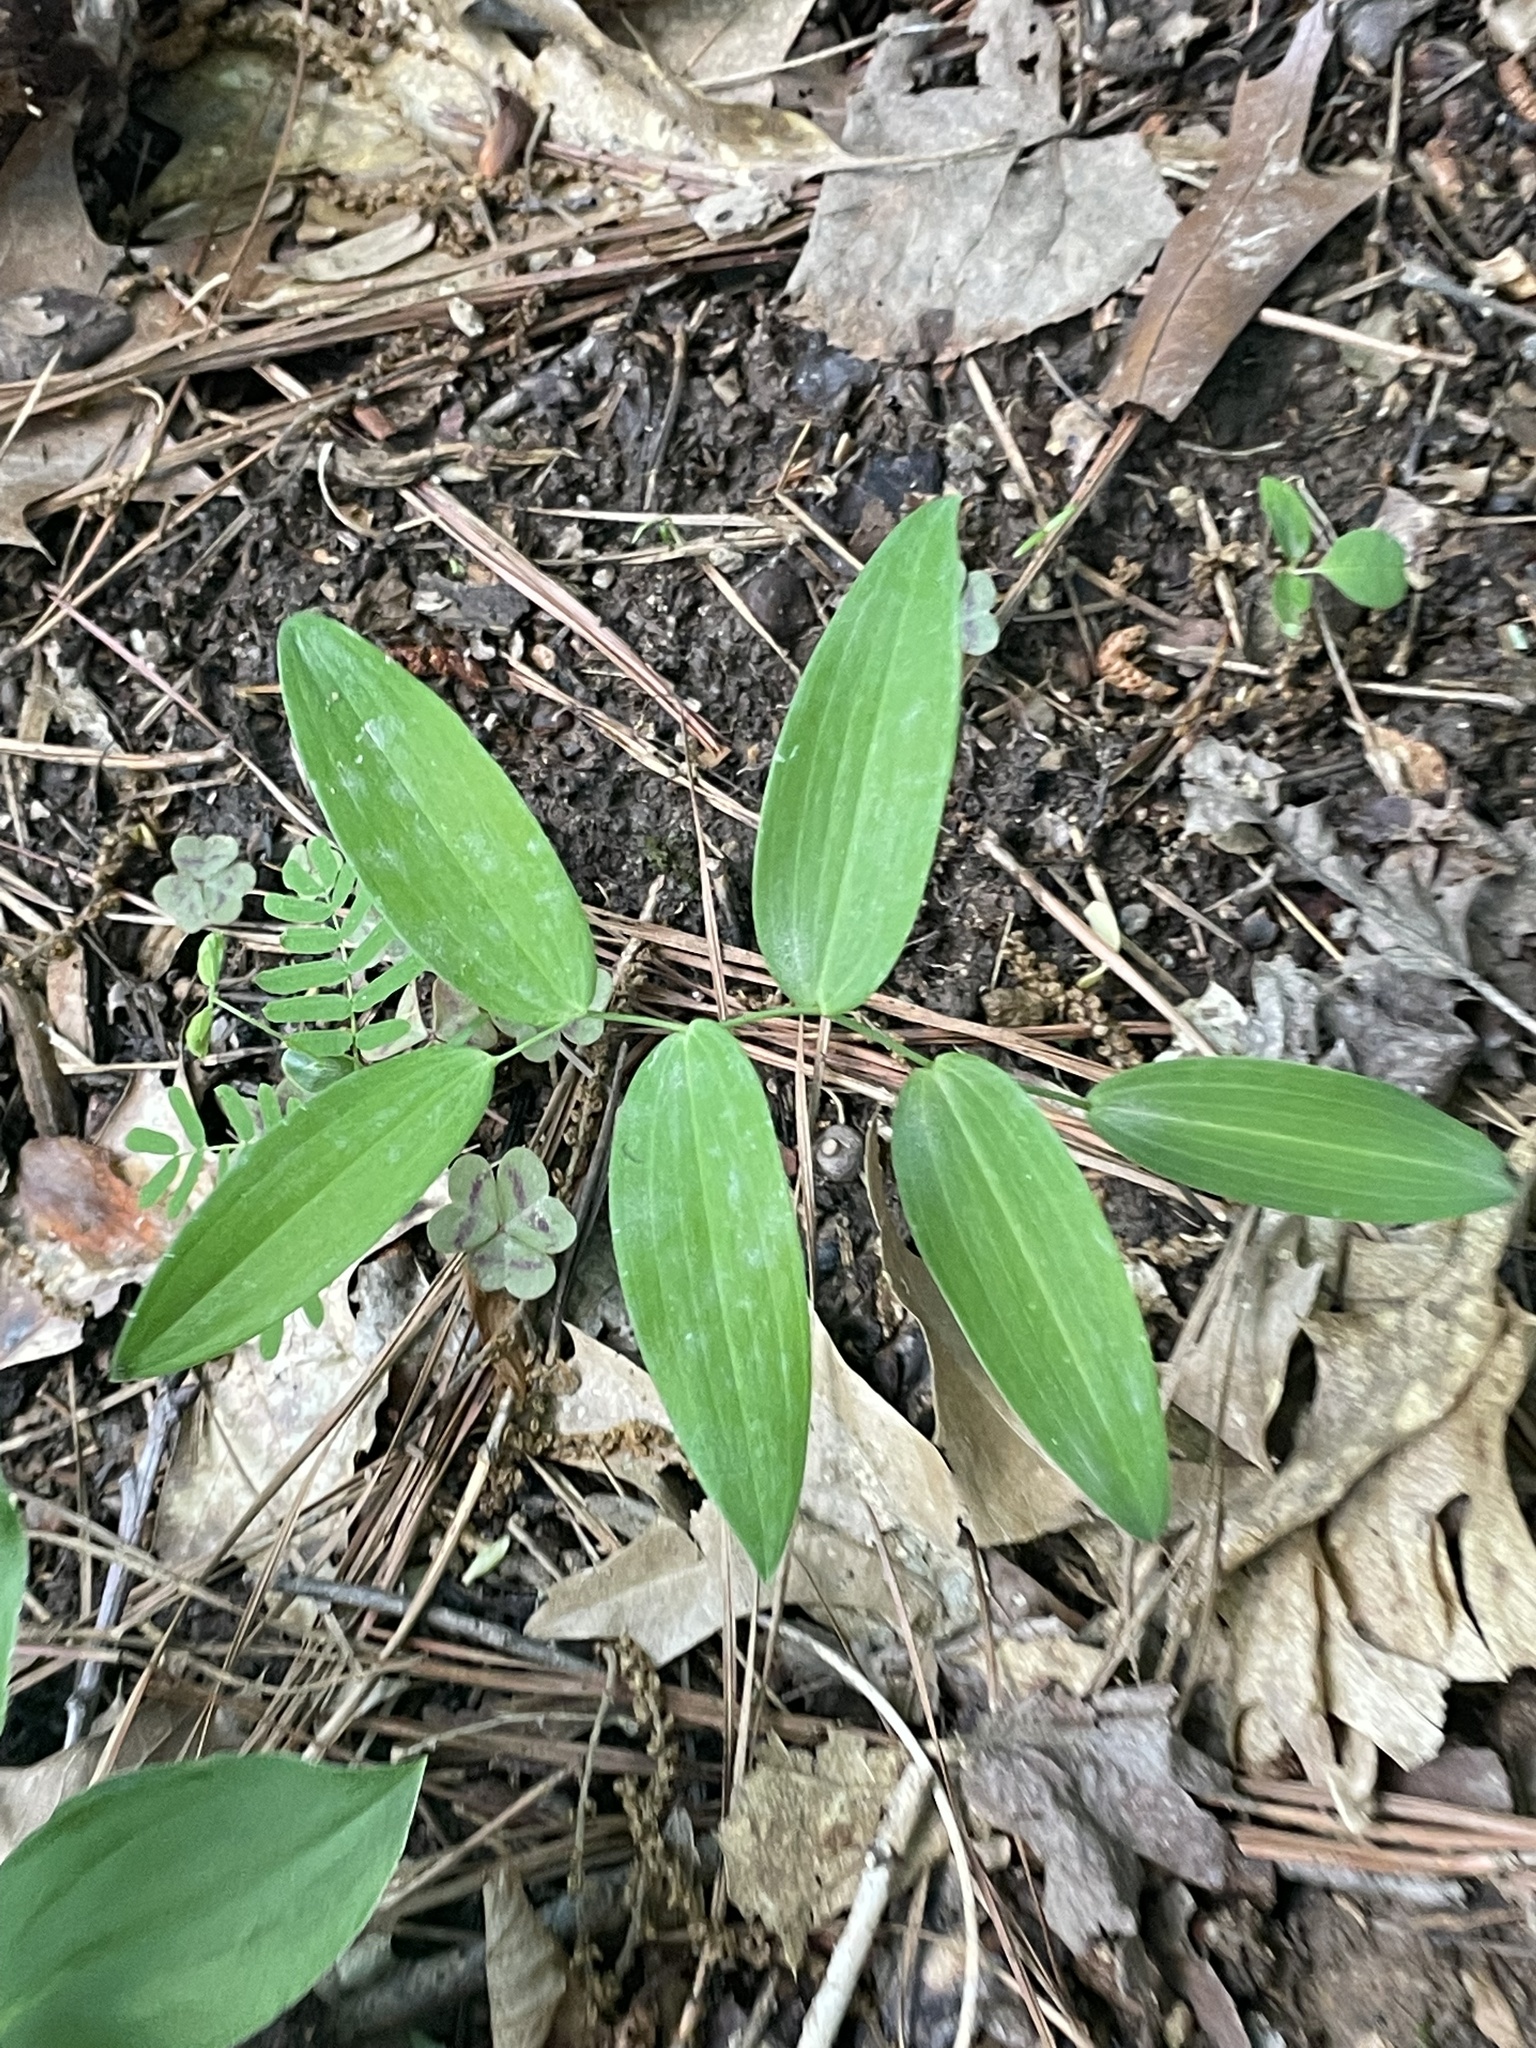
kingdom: Plantae
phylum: Tracheophyta
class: Liliopsida
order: Asparagales
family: Asparagaceae
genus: Polygonatum
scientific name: Polygonatum biflorum
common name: American solomon's-seal
